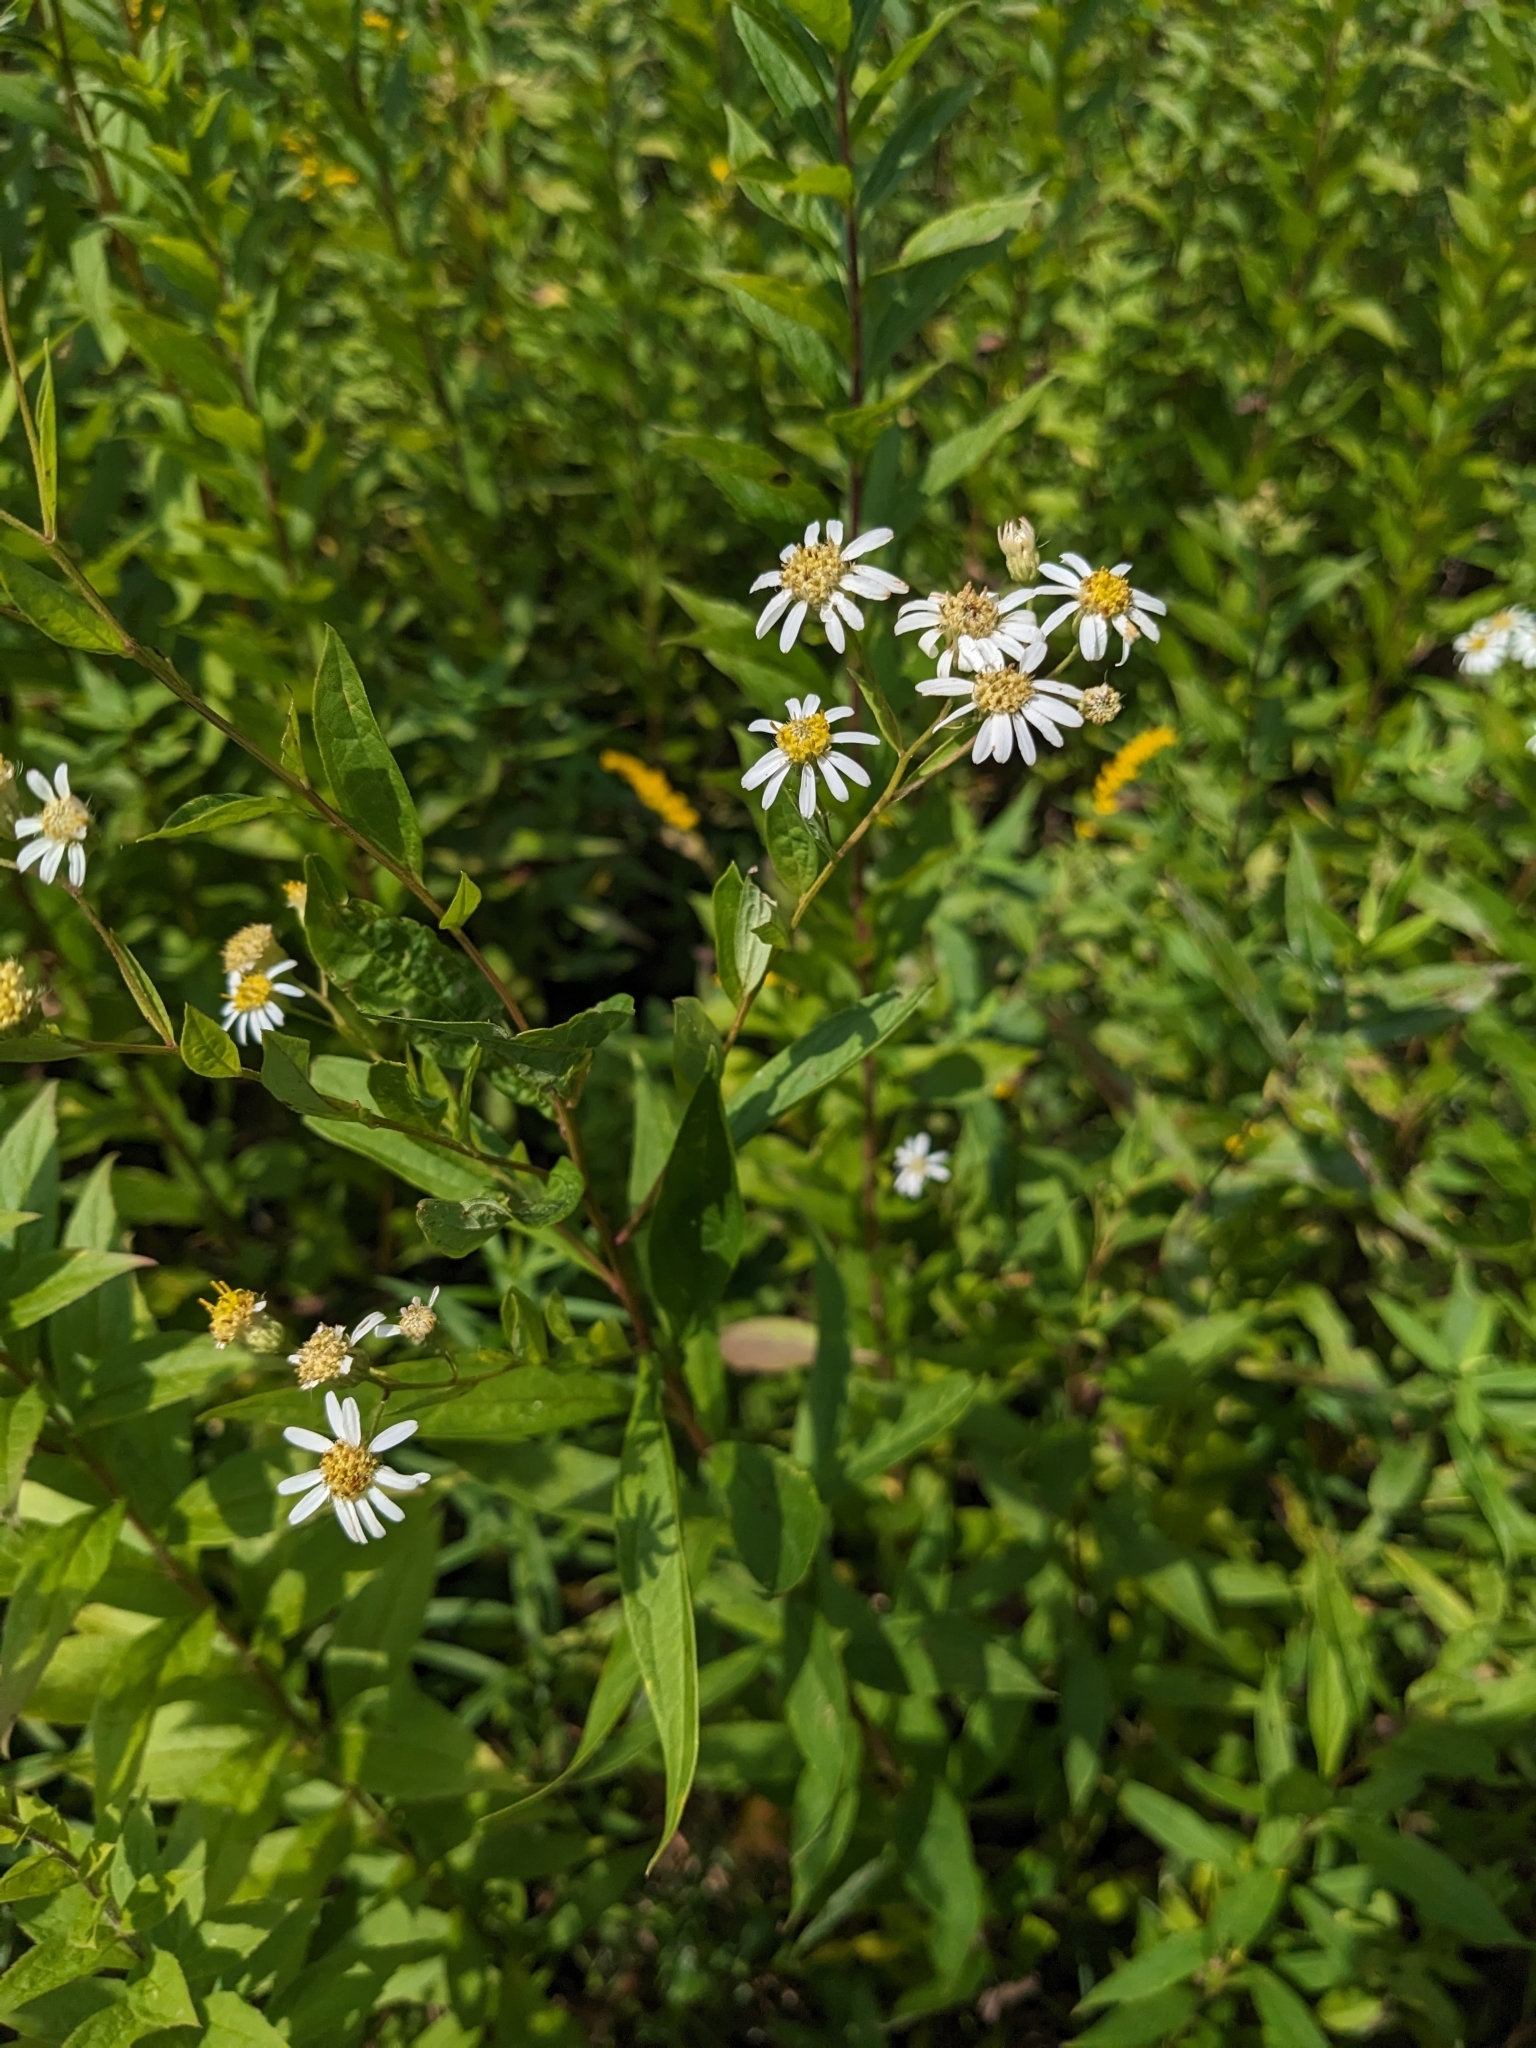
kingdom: Plantae
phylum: Tracheophyta
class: Magnoliopsida
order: Asterales
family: Asteraceae
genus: Doellingeria
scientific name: Doellingeria umbellata
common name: Flat-top white aster
